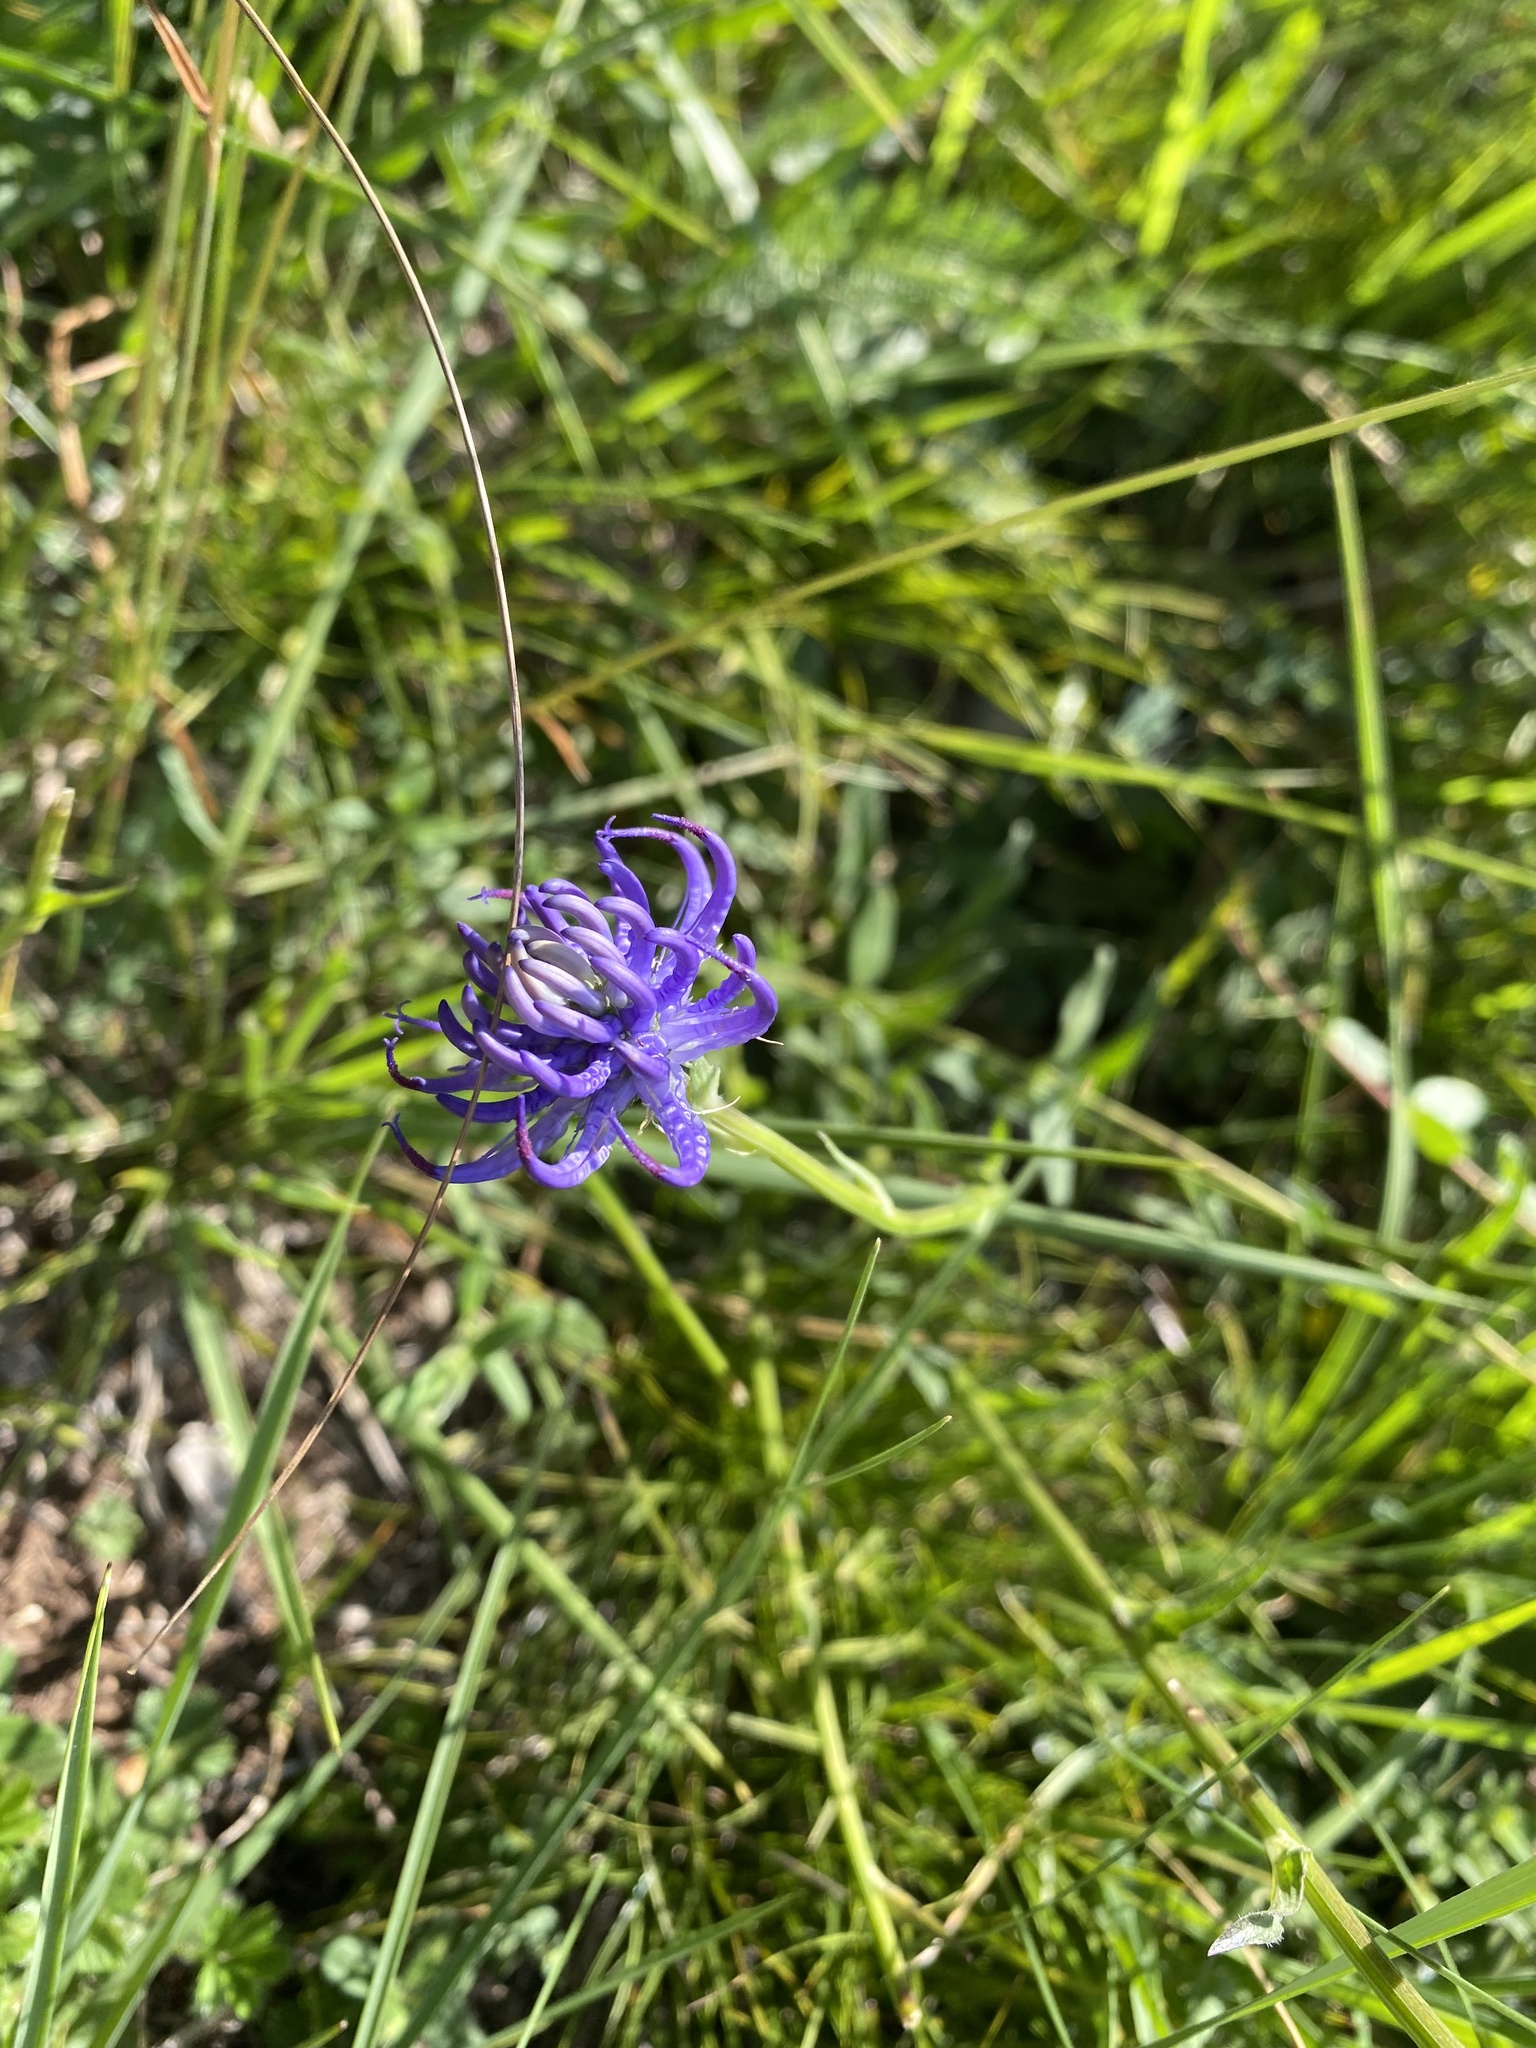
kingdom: Plantae
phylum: Tracheophyta
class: Magnoliopsida
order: Asterales
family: Campanulaceae
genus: Phyteuma
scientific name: Phyteuma orbiculare
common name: Round-headed rampion
